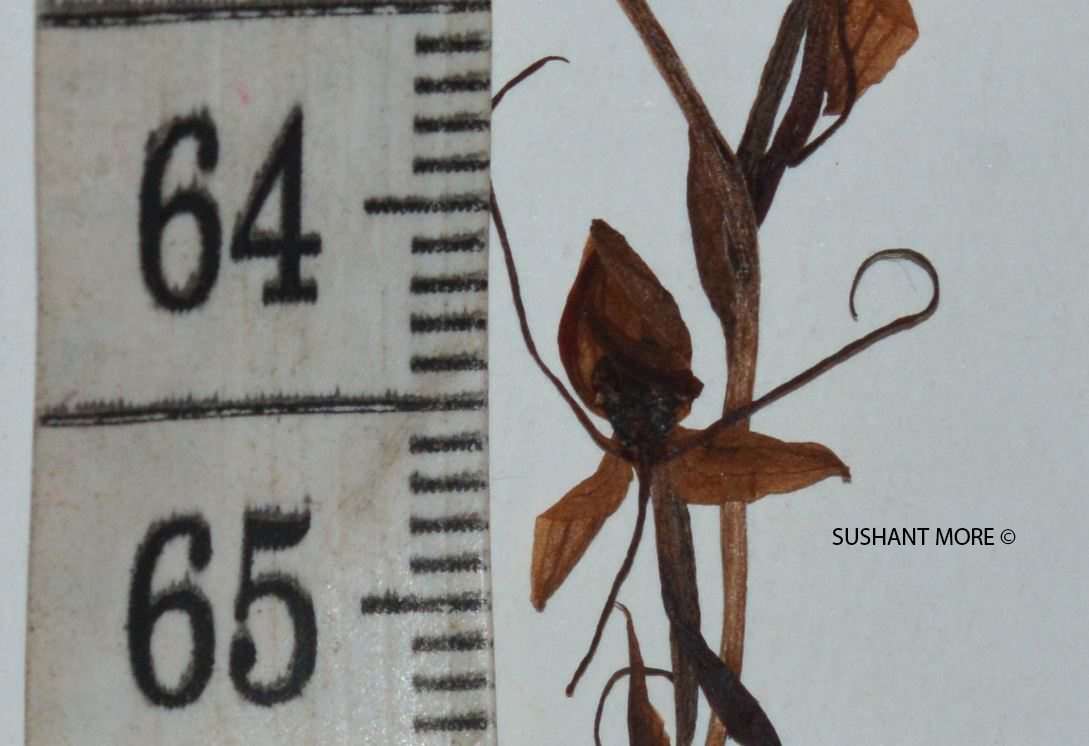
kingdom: Plantae
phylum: Tracheophyta
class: Liliopsida
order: Asparagales
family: Orchidaceae
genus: Habenaria
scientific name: Habenaria diphylla
